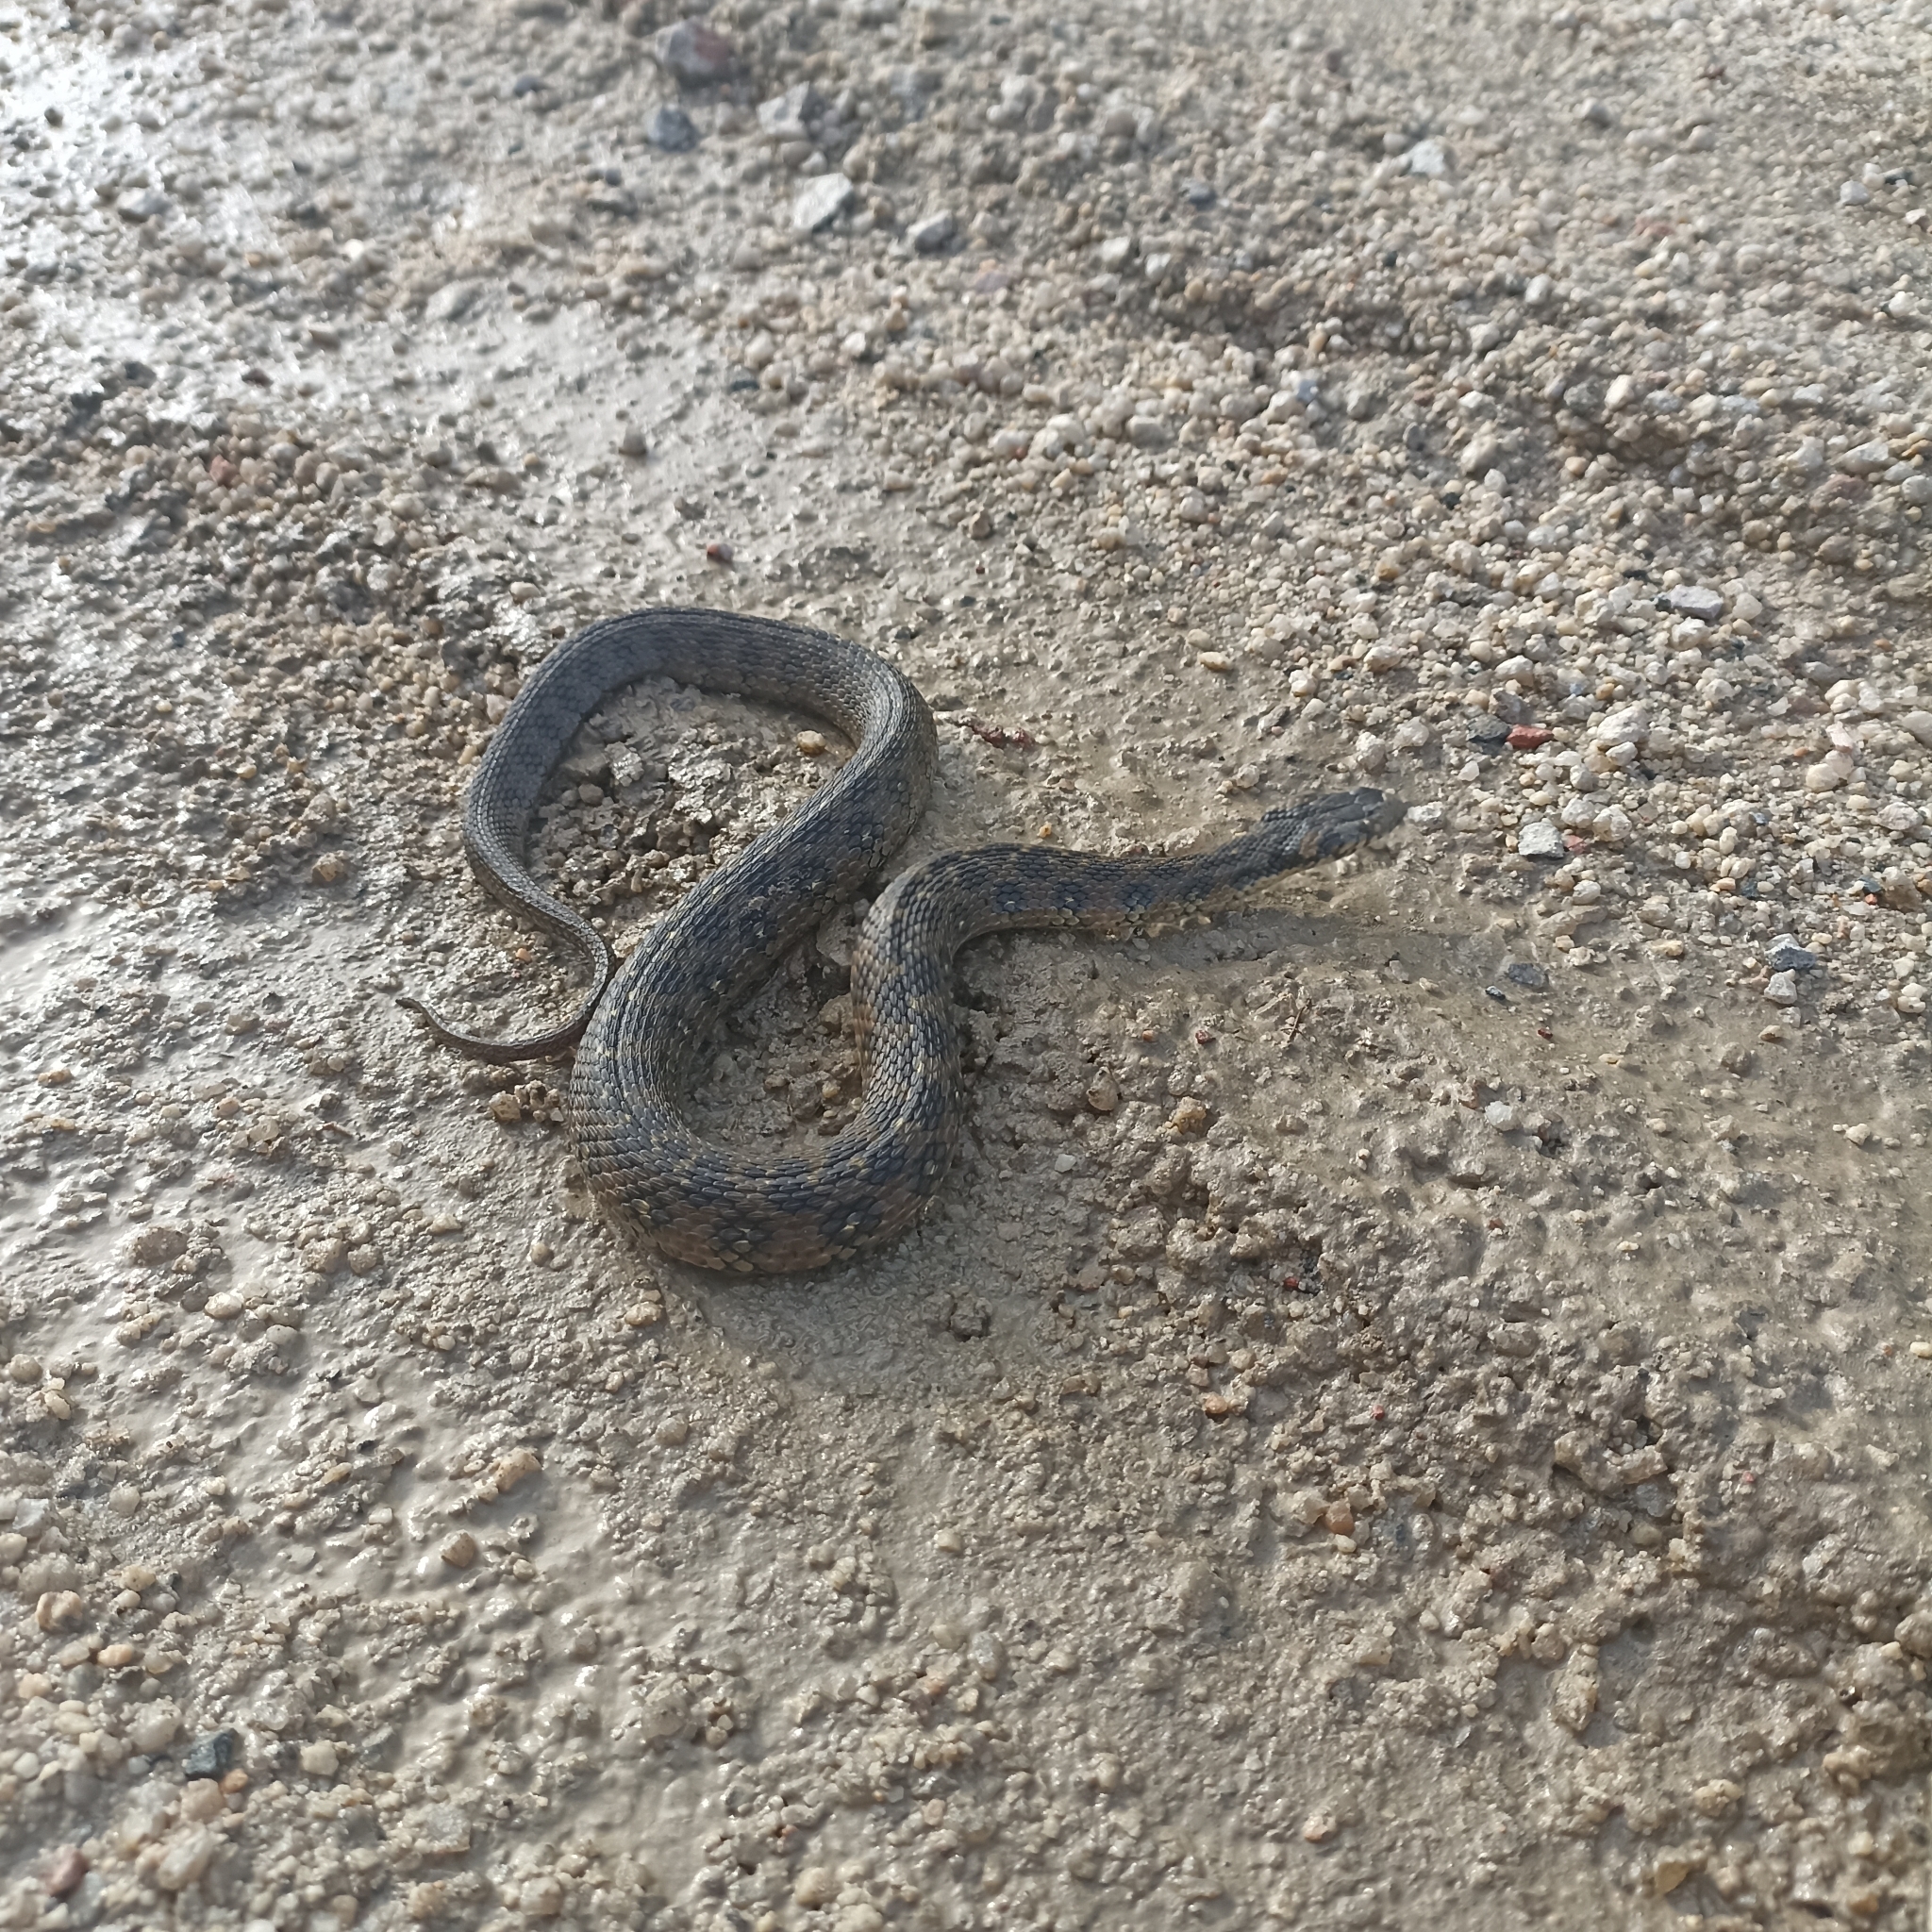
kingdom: Animalia
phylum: Chordata
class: Squamata
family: Colubridae
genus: Natrix
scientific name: Natrix maura
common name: Viperine water snake
